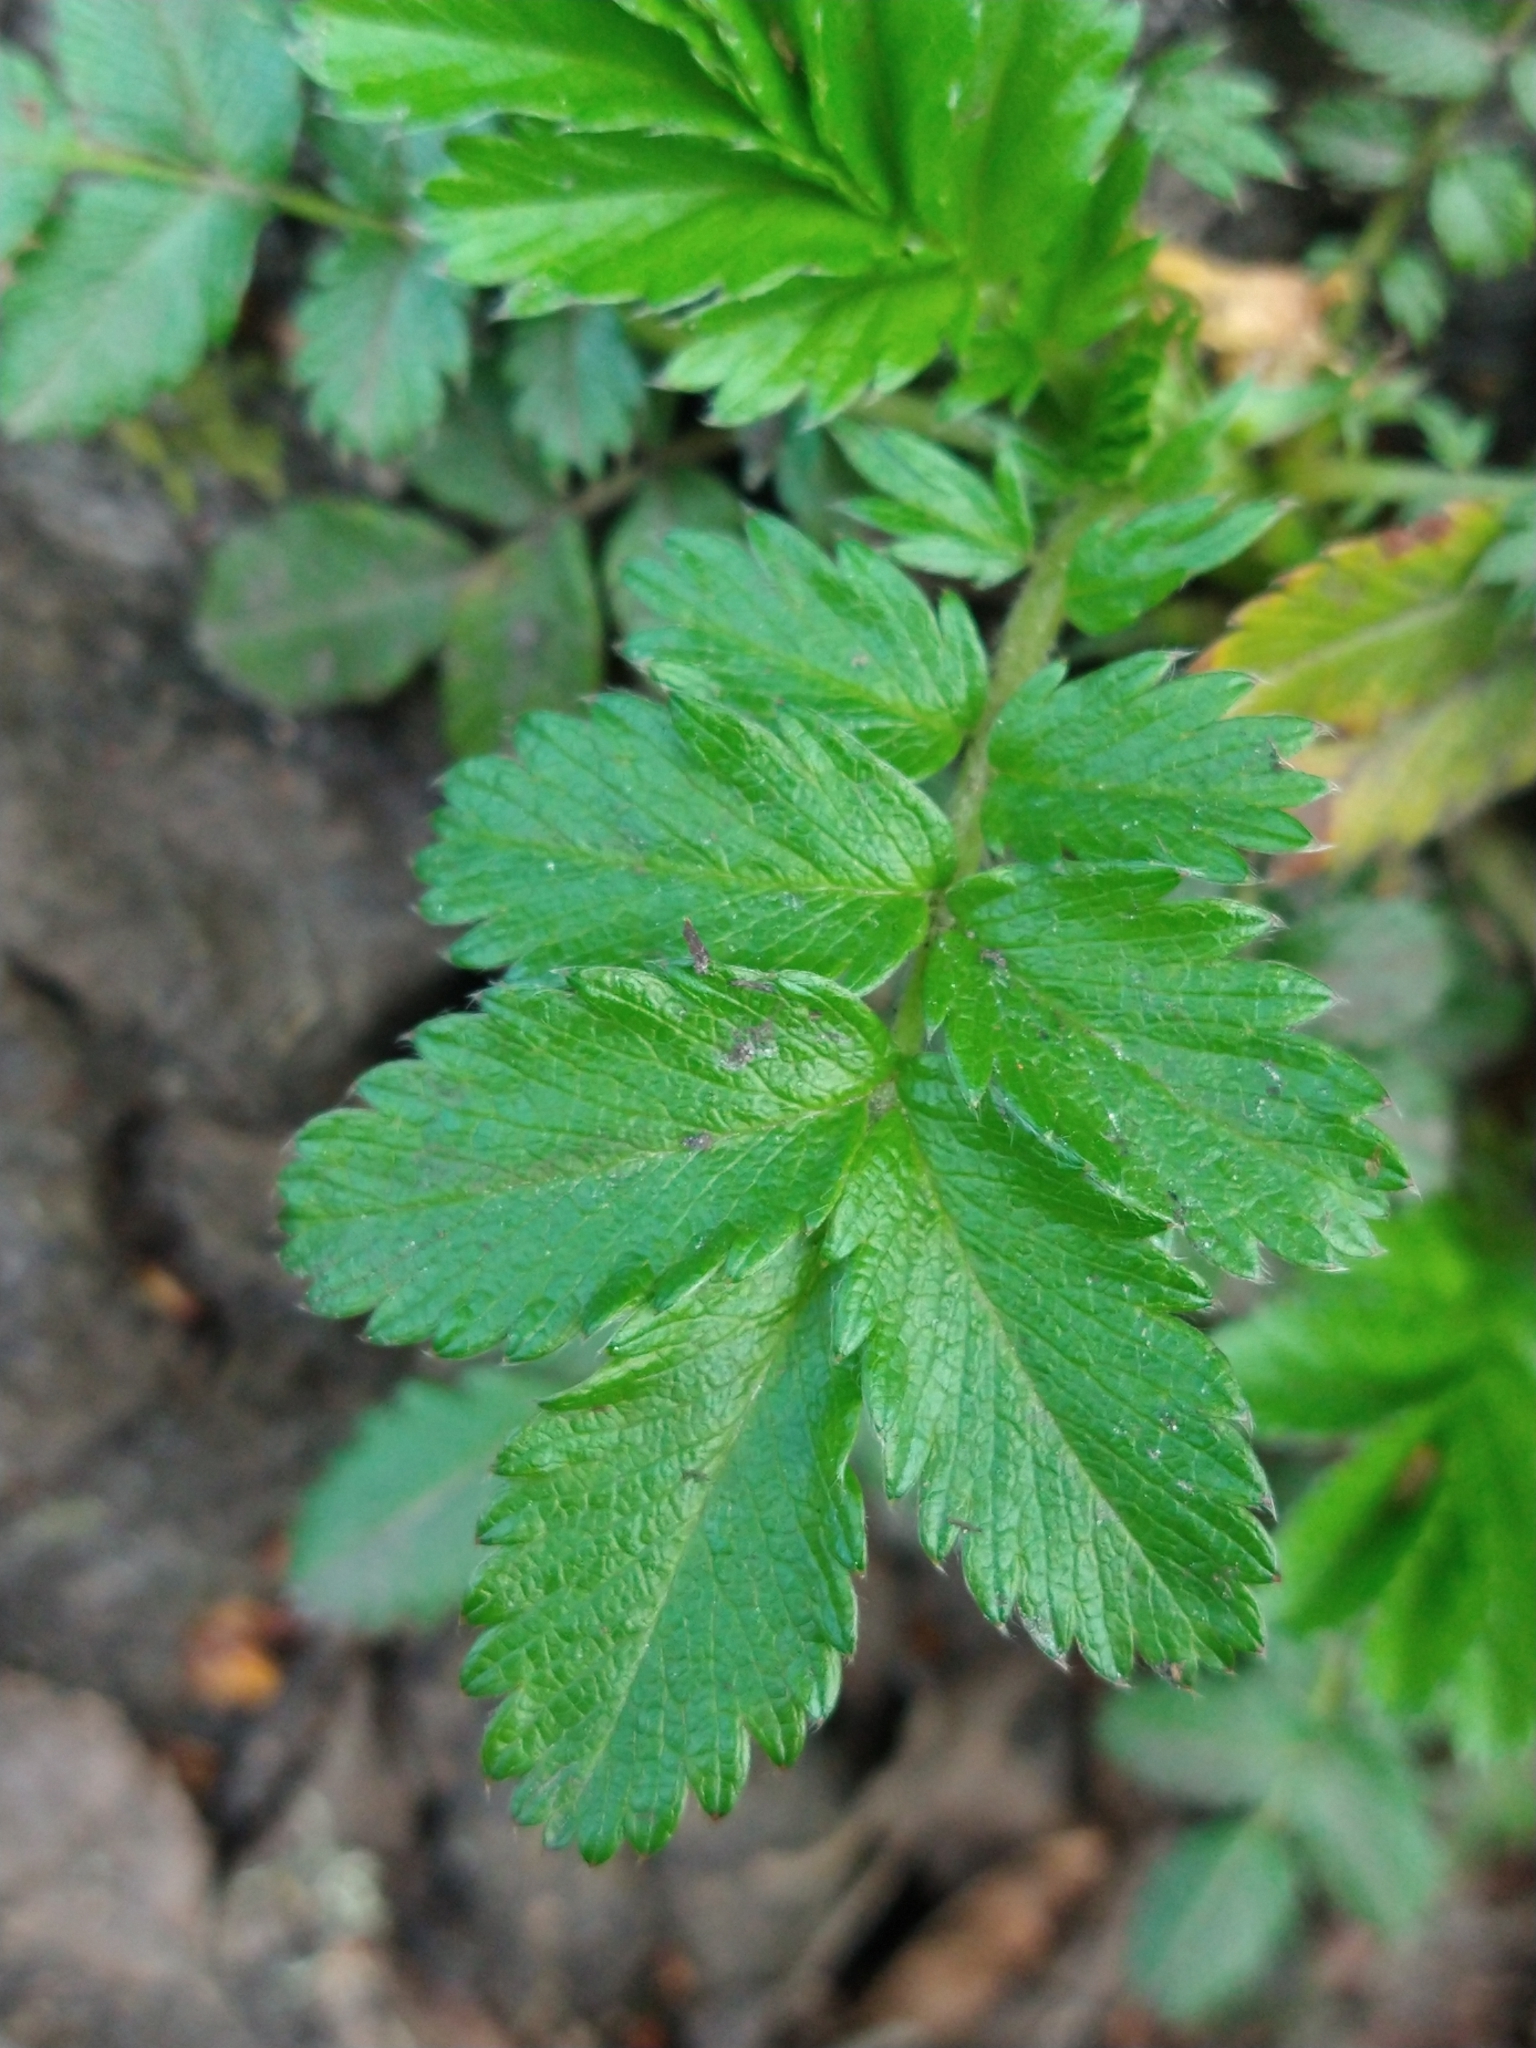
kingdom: Plantae
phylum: Tracheophyta
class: Magnoliopsida
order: Rosales
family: Rosaceae
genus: Acaena
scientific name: Acaena ovalifolia
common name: Two-spined acaena
